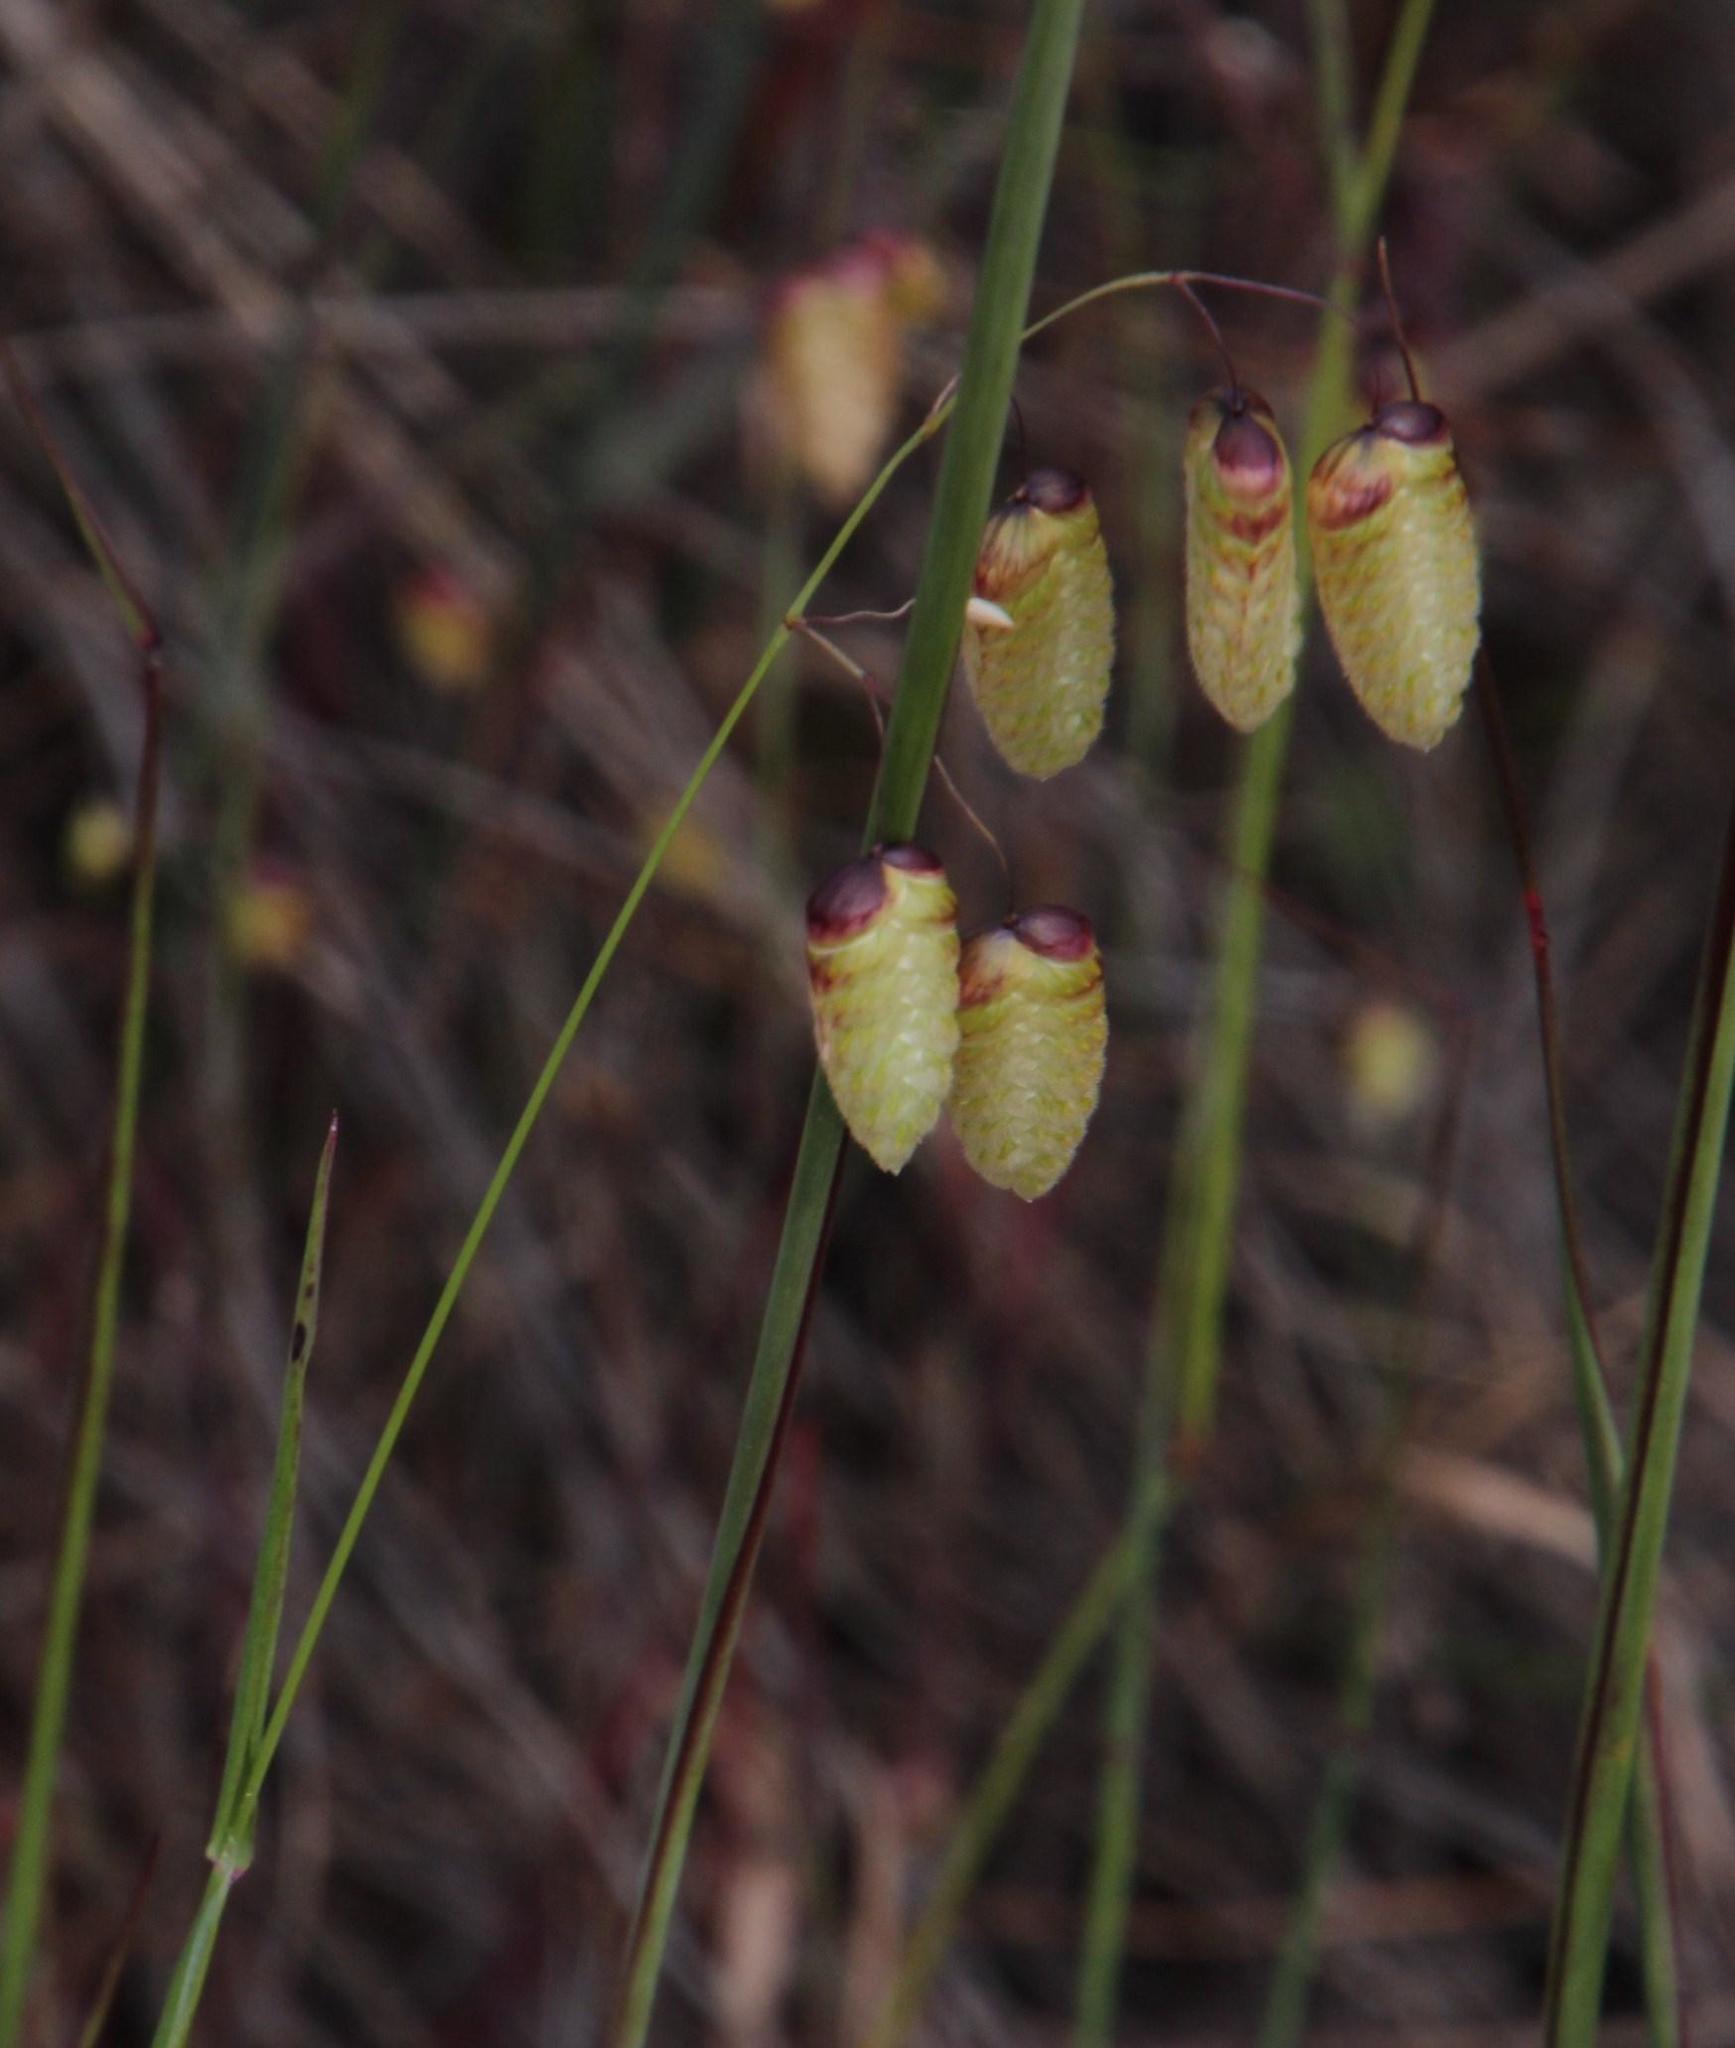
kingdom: Plantae
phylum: Tracheophyta
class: Liliopsida
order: Poales
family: Poaceae
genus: Briza
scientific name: Briza maxima
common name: Big quakinggrass
